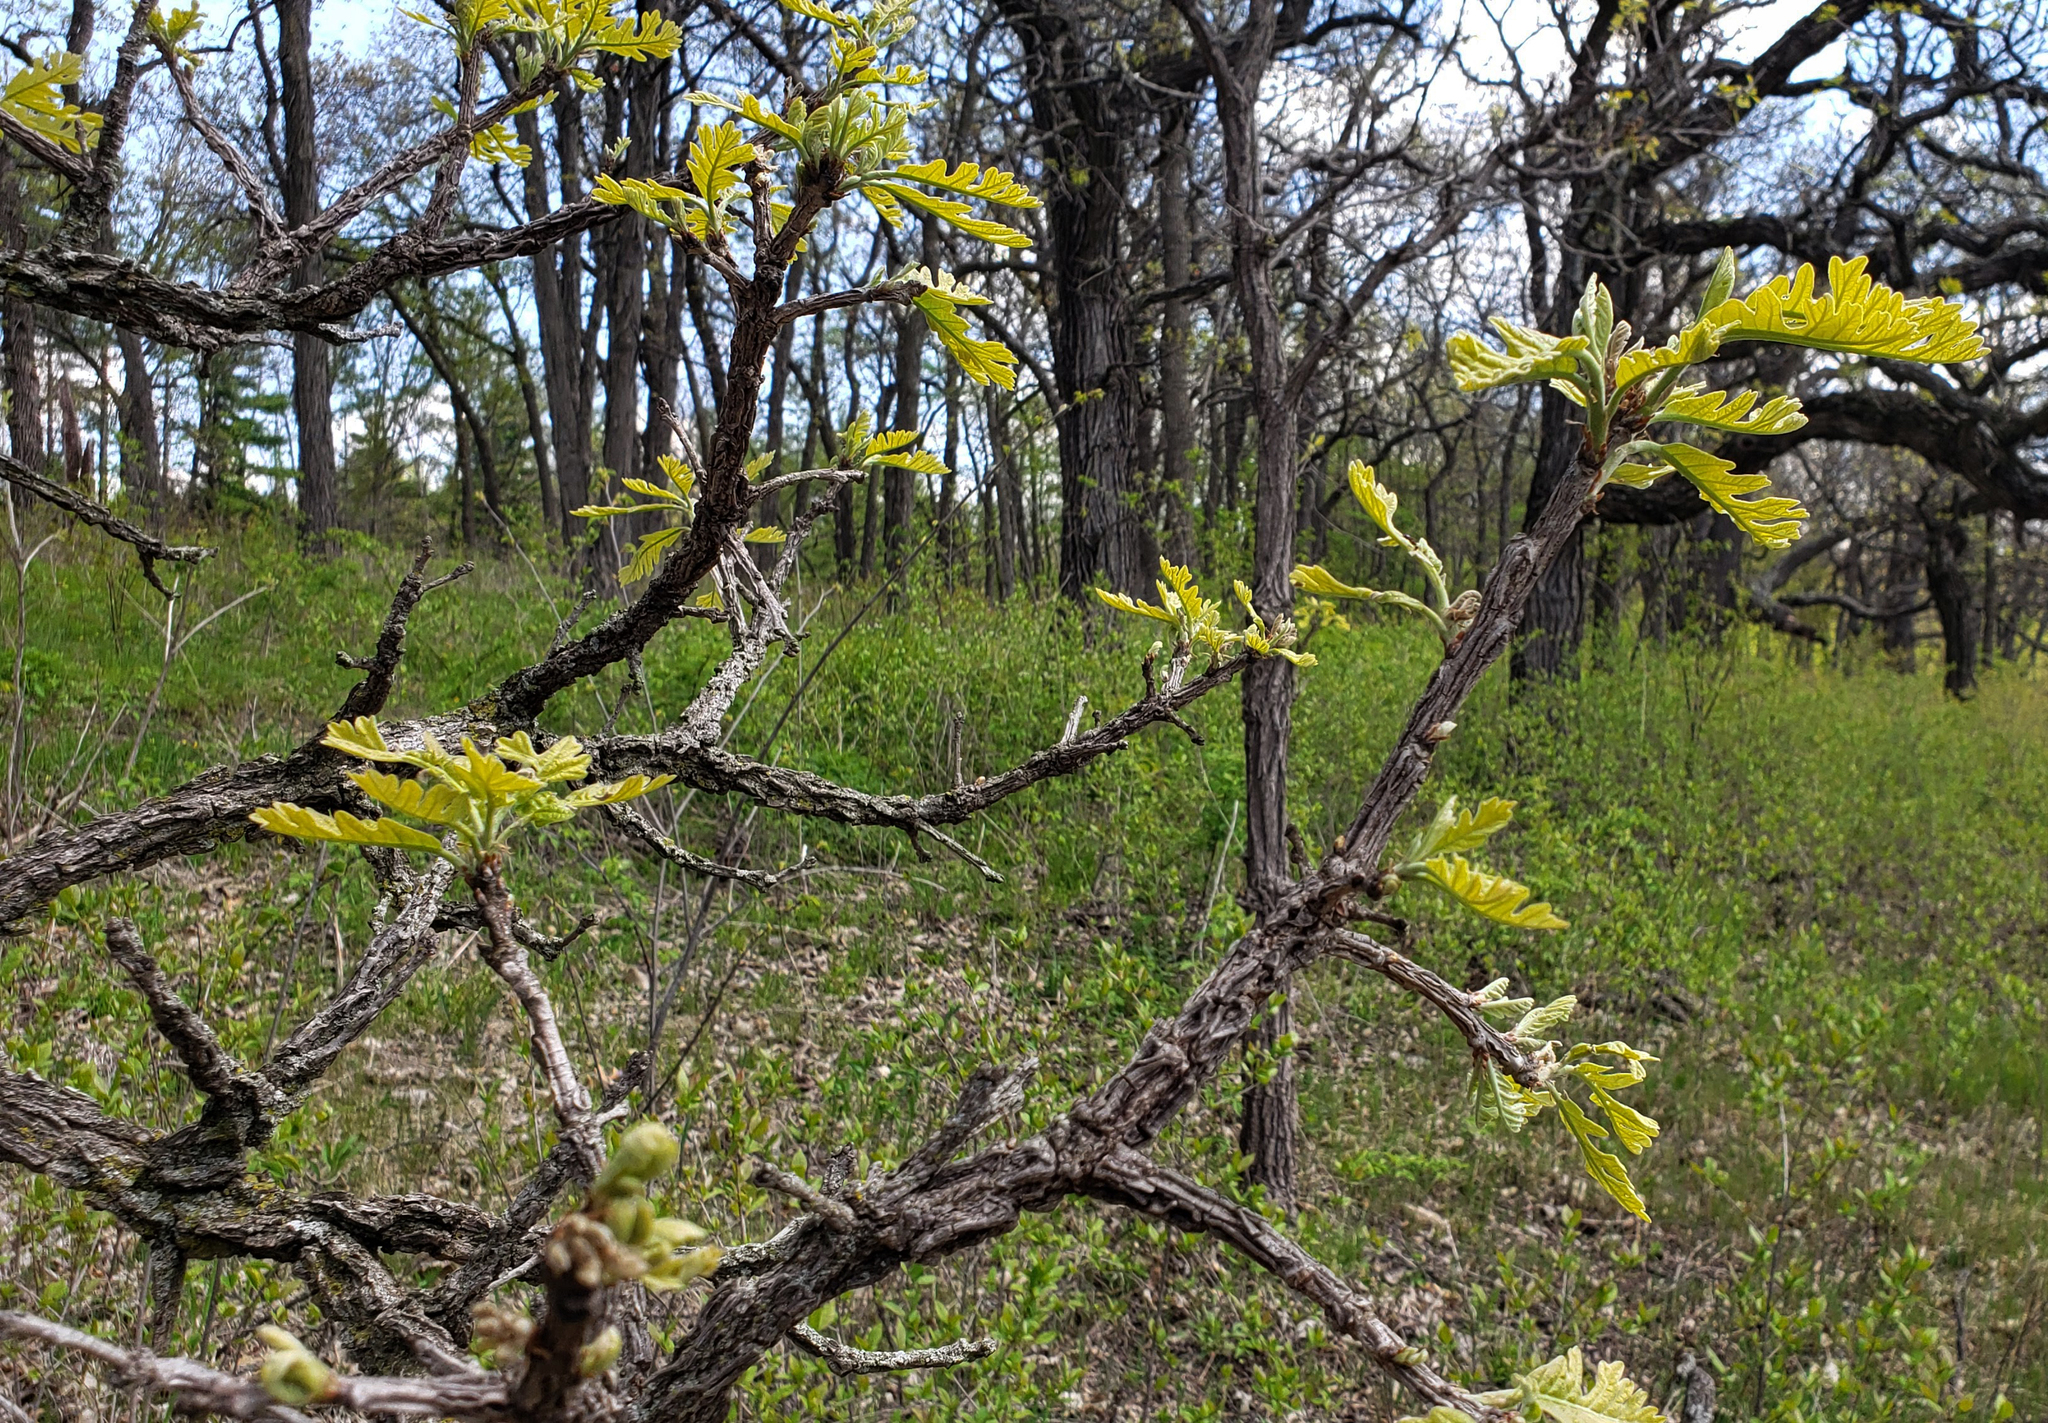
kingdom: Plantae
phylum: Tracheophyta
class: Magnoliopsida
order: Fagales
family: Fagaceae
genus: Quercus
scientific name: Quercus macrocarpa
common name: Bur oak
